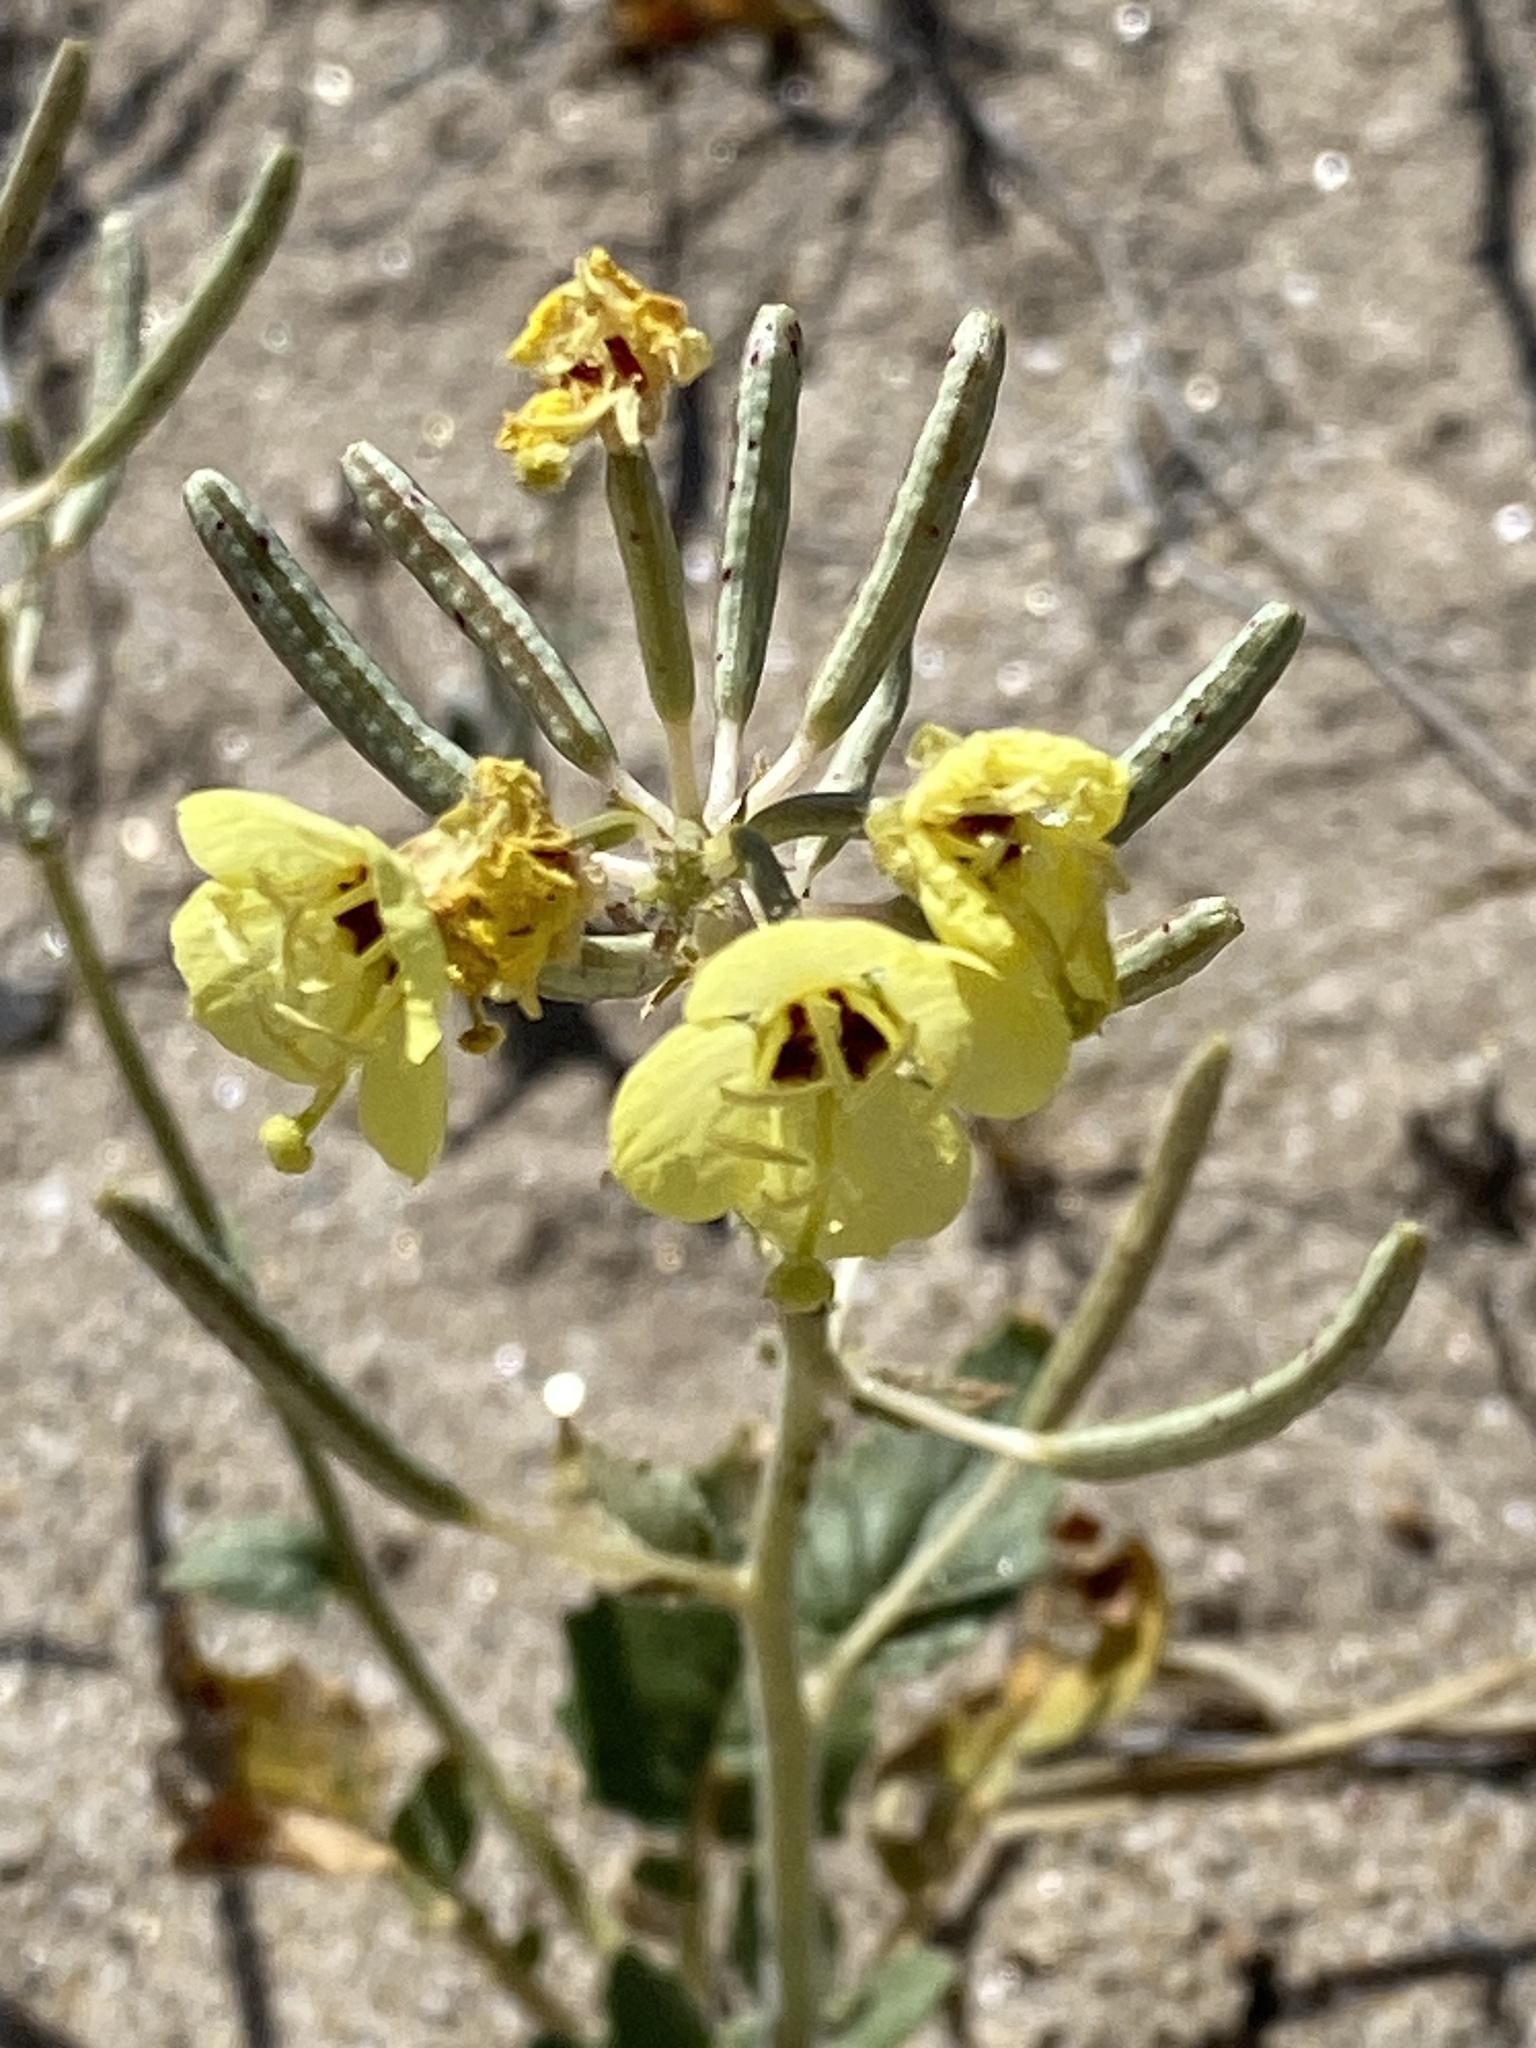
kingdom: Plantae
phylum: Tracheophyta
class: Magnoliopsida
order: Myrtales
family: Onagraceae
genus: Chylismia
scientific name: Chylismia claviformis
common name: Browneyes
